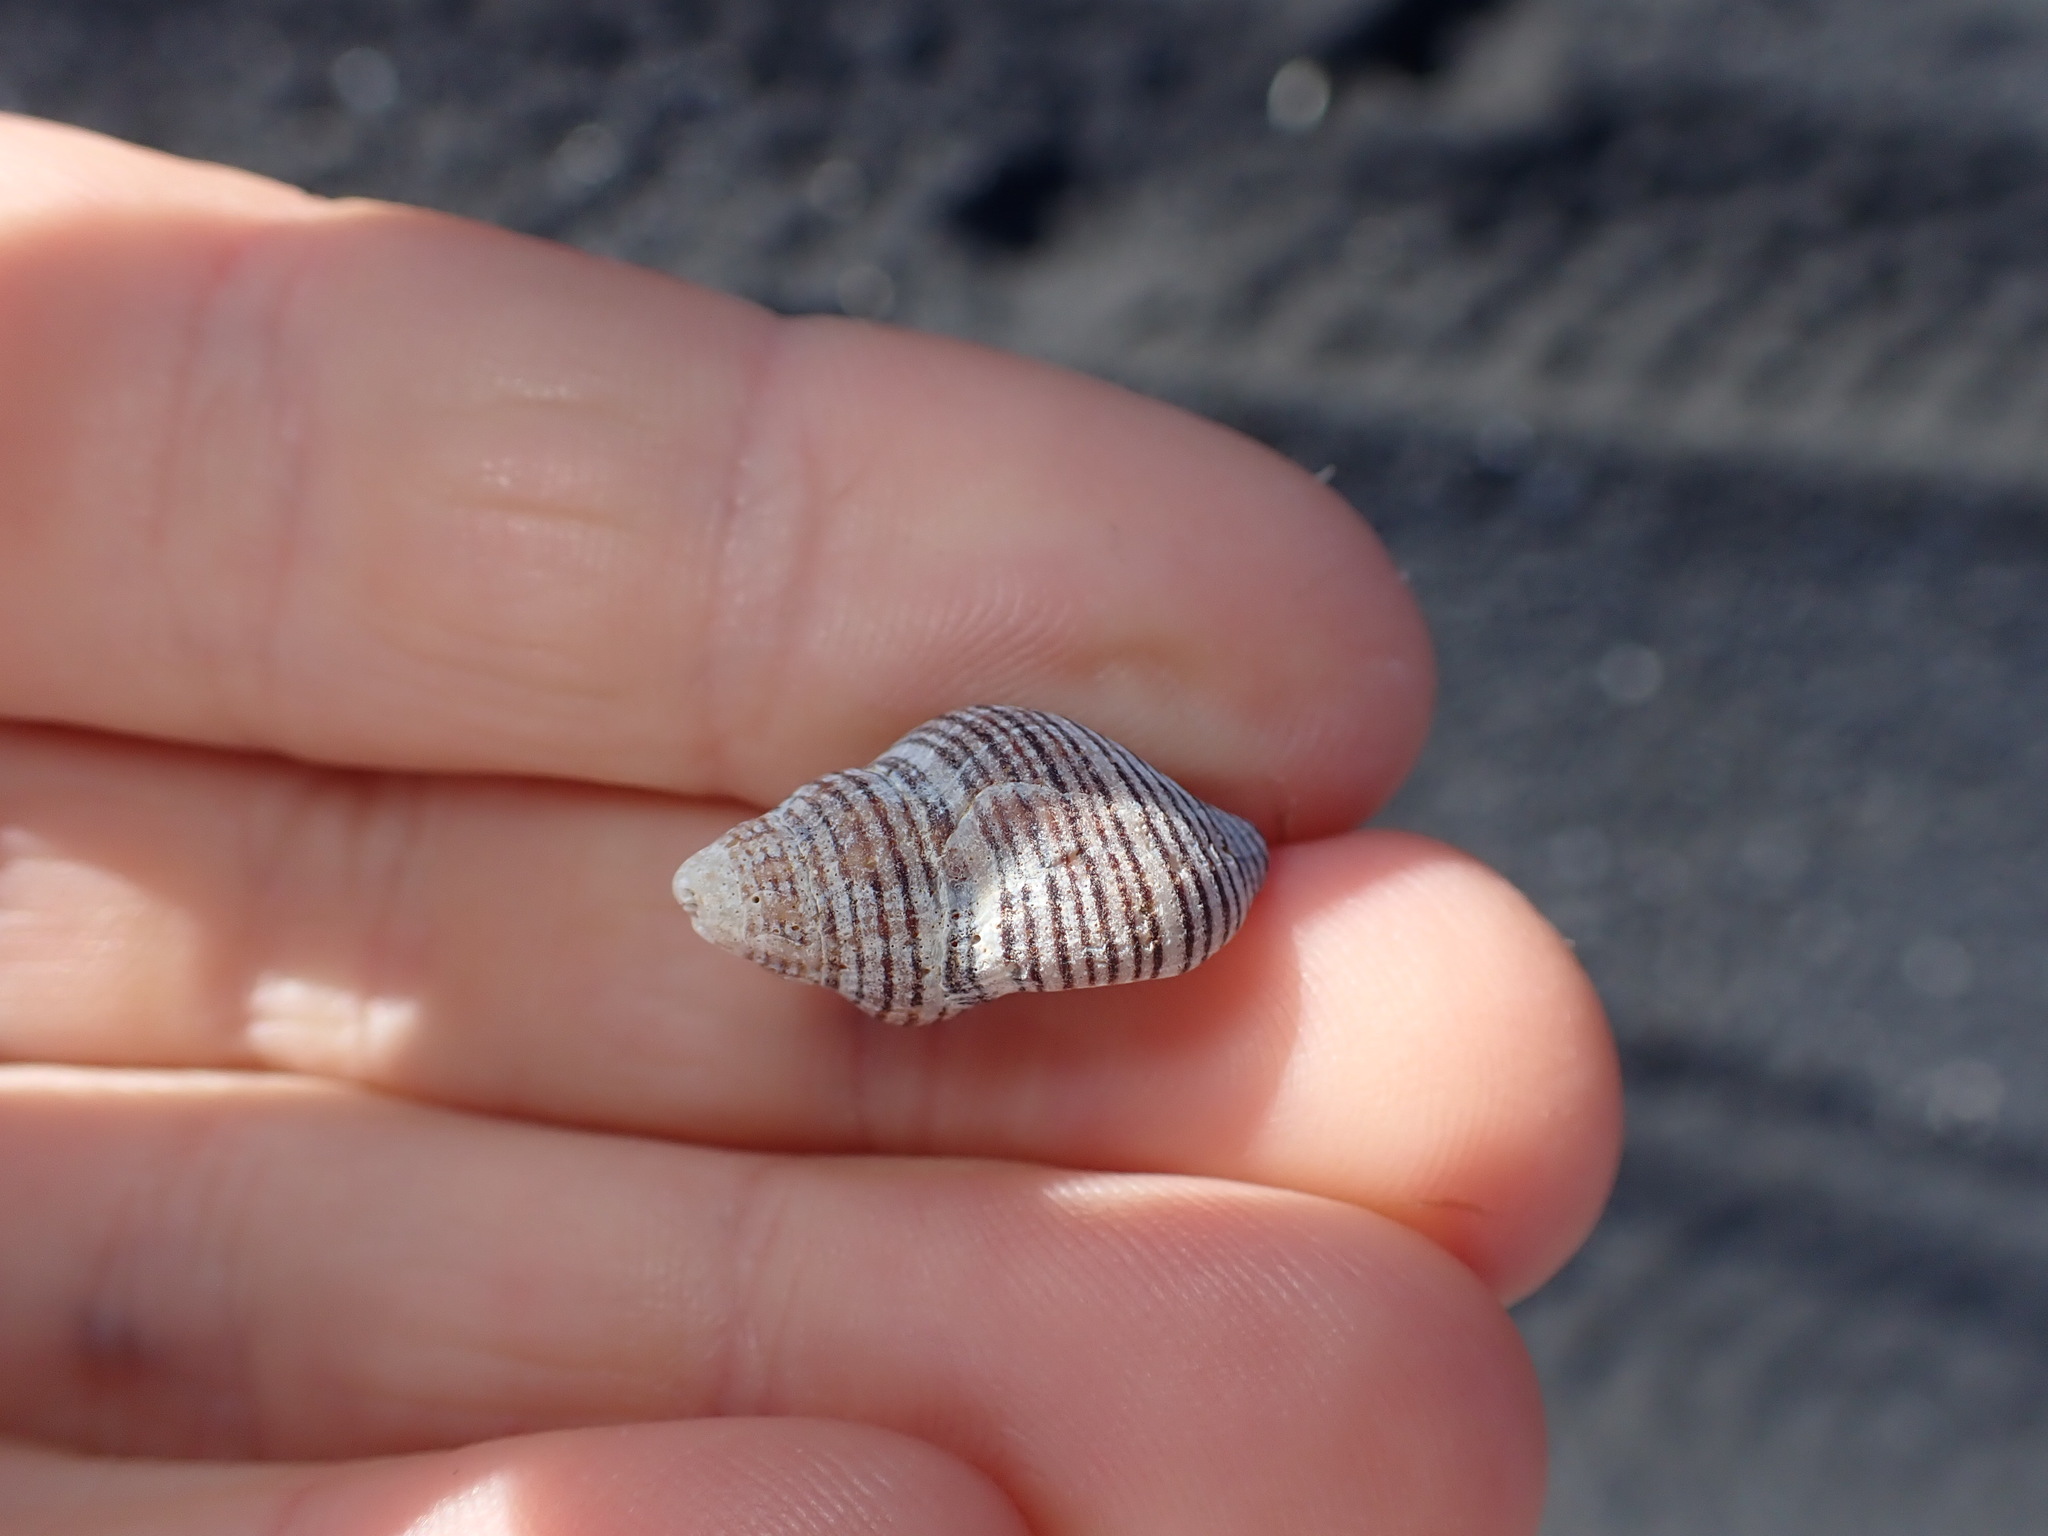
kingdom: Animalia
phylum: Mollusca
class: Gastropoda
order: Neogastropoda
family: Tudiclidae
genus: Buccinulum
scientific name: Buccinulum linea
